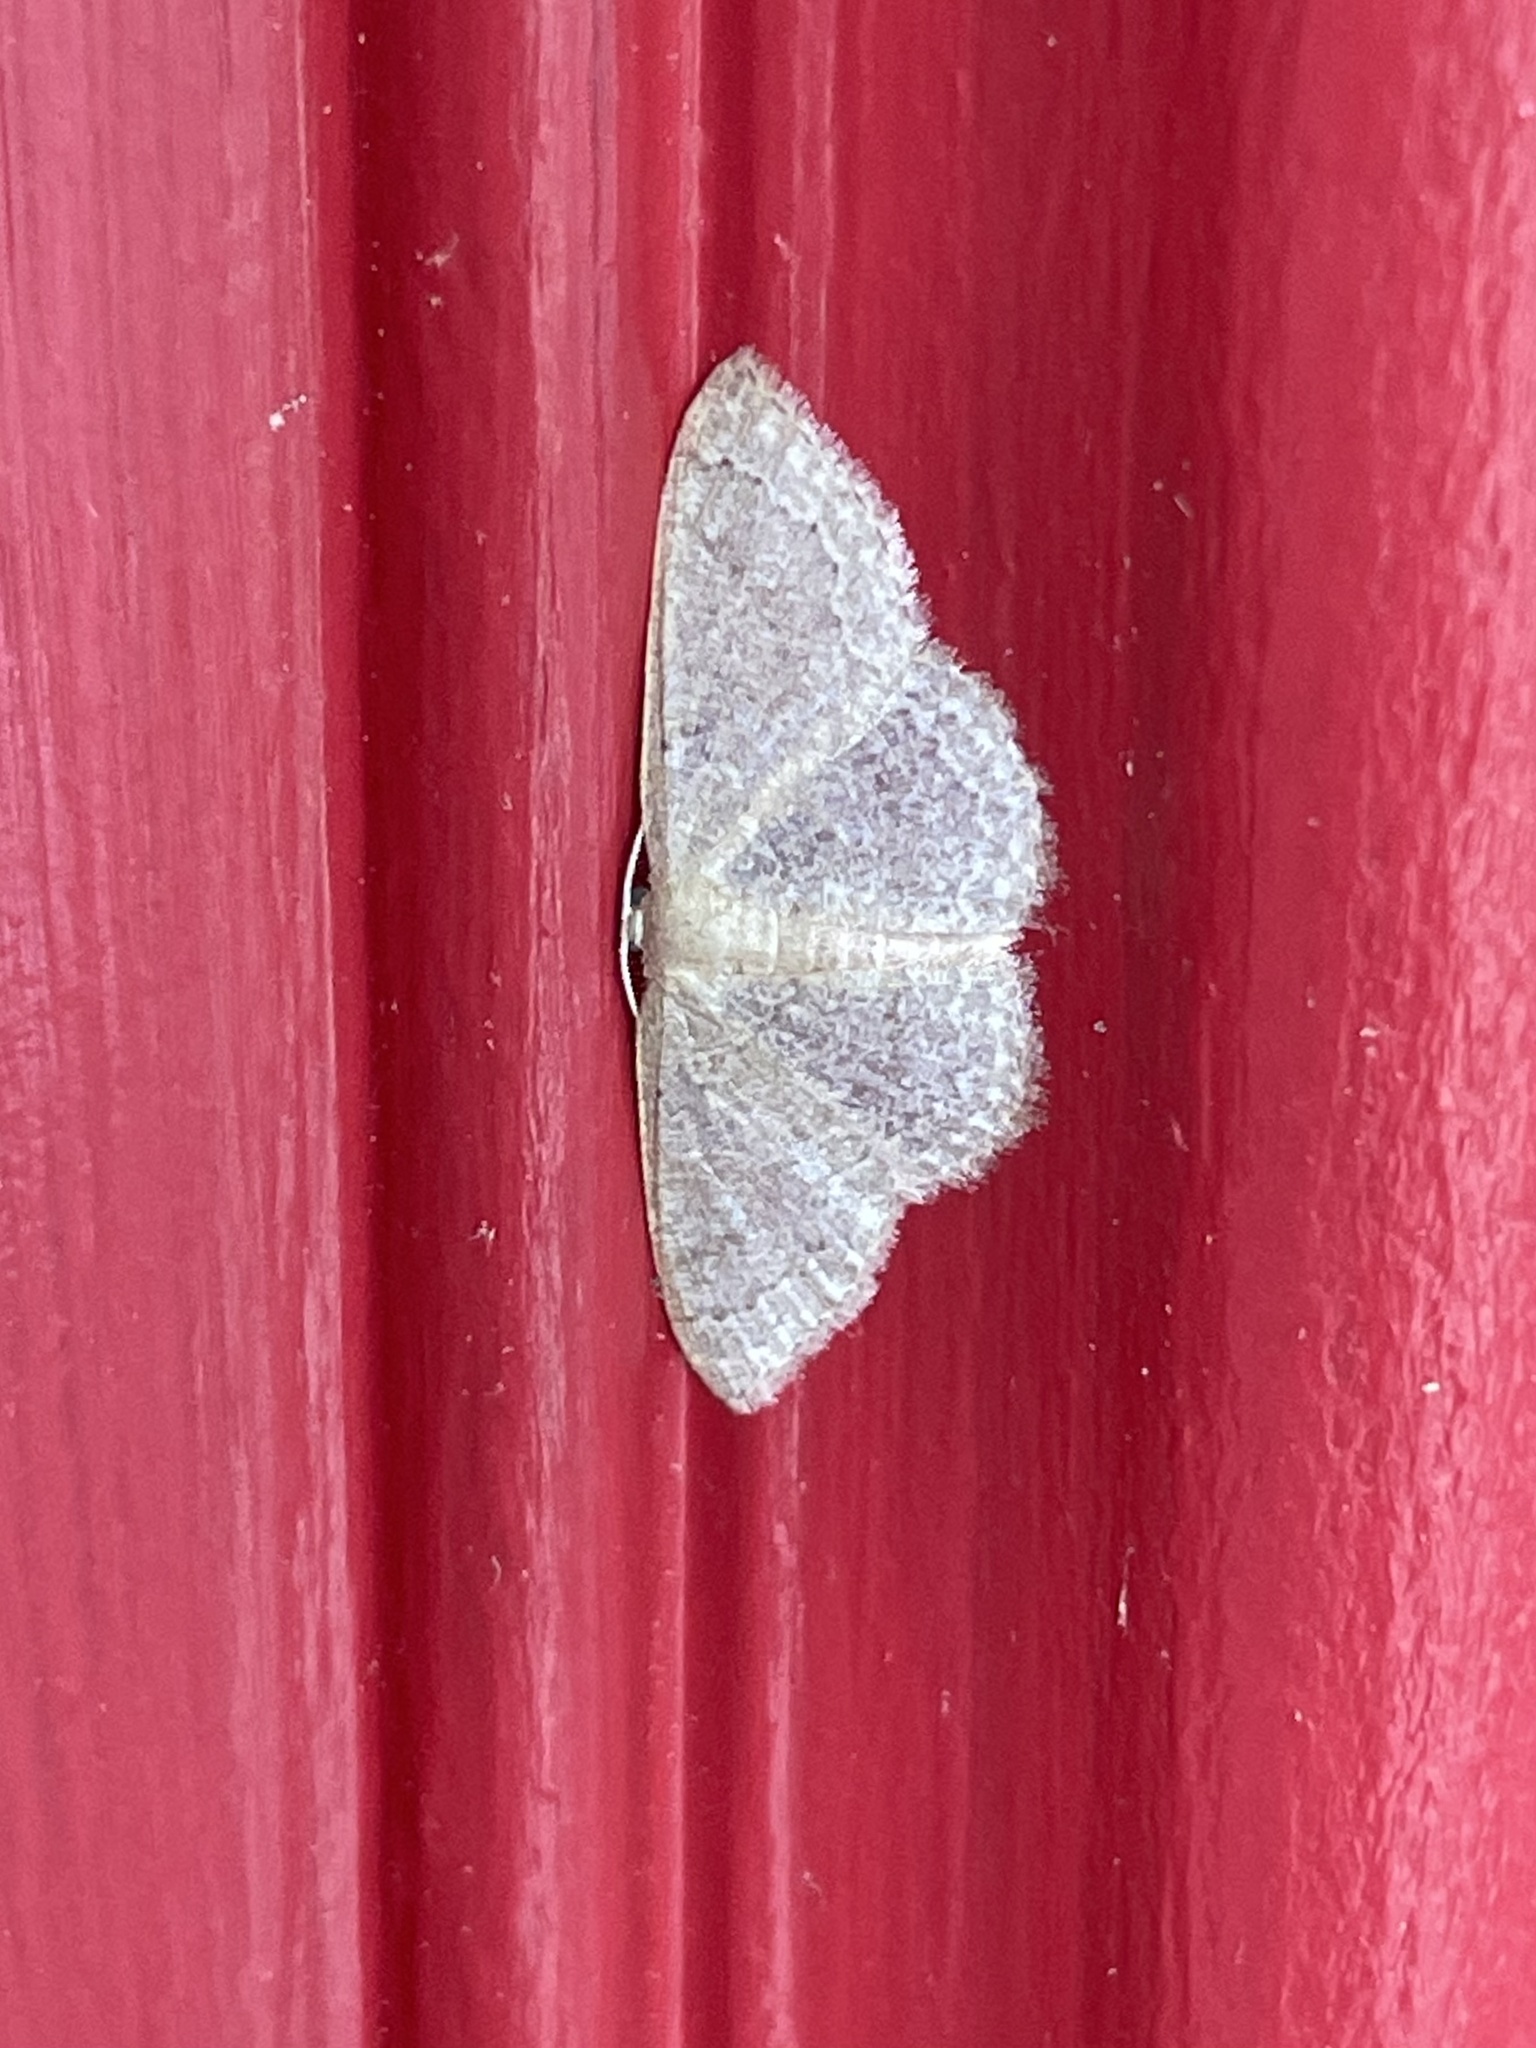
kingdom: Animalia
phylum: Arthropoda
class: Insecta
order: Lepidoptera
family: Geometridae
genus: Pleuroprucha
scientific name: Pleuroprucha insulsaria
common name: Common tan wave
